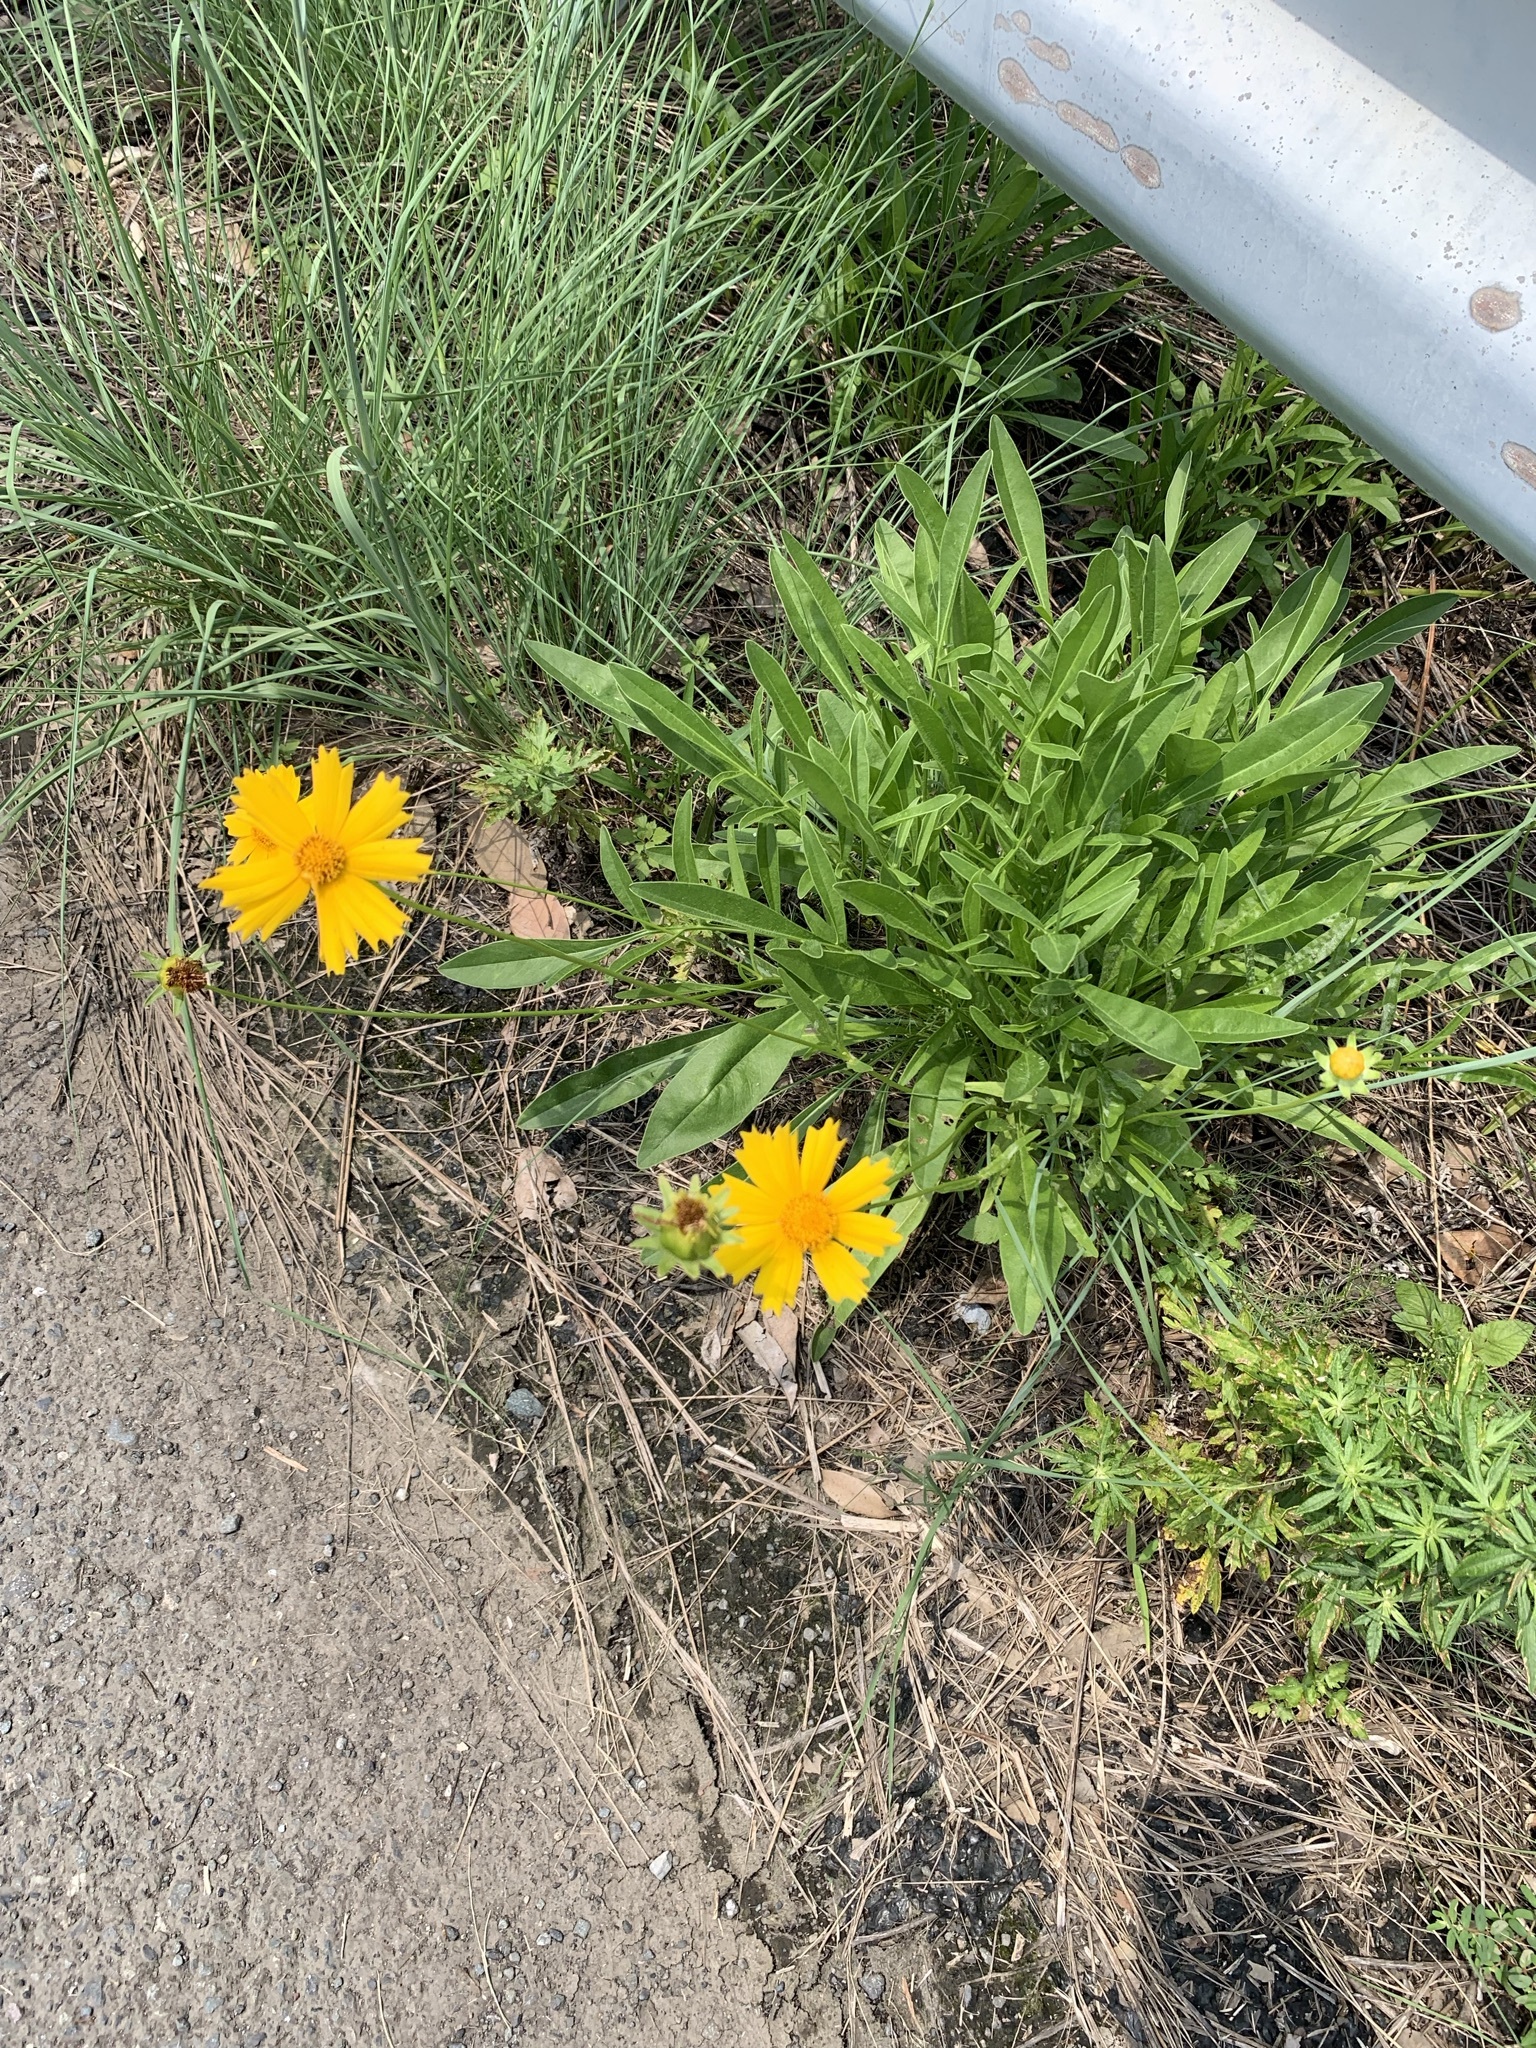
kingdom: Plantae
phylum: Tracheophyta
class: Magnoliopsida
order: Asterales
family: Asteraceae
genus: Coreopsis
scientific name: Coreopsis lanceolata
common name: Garden coreopsis
